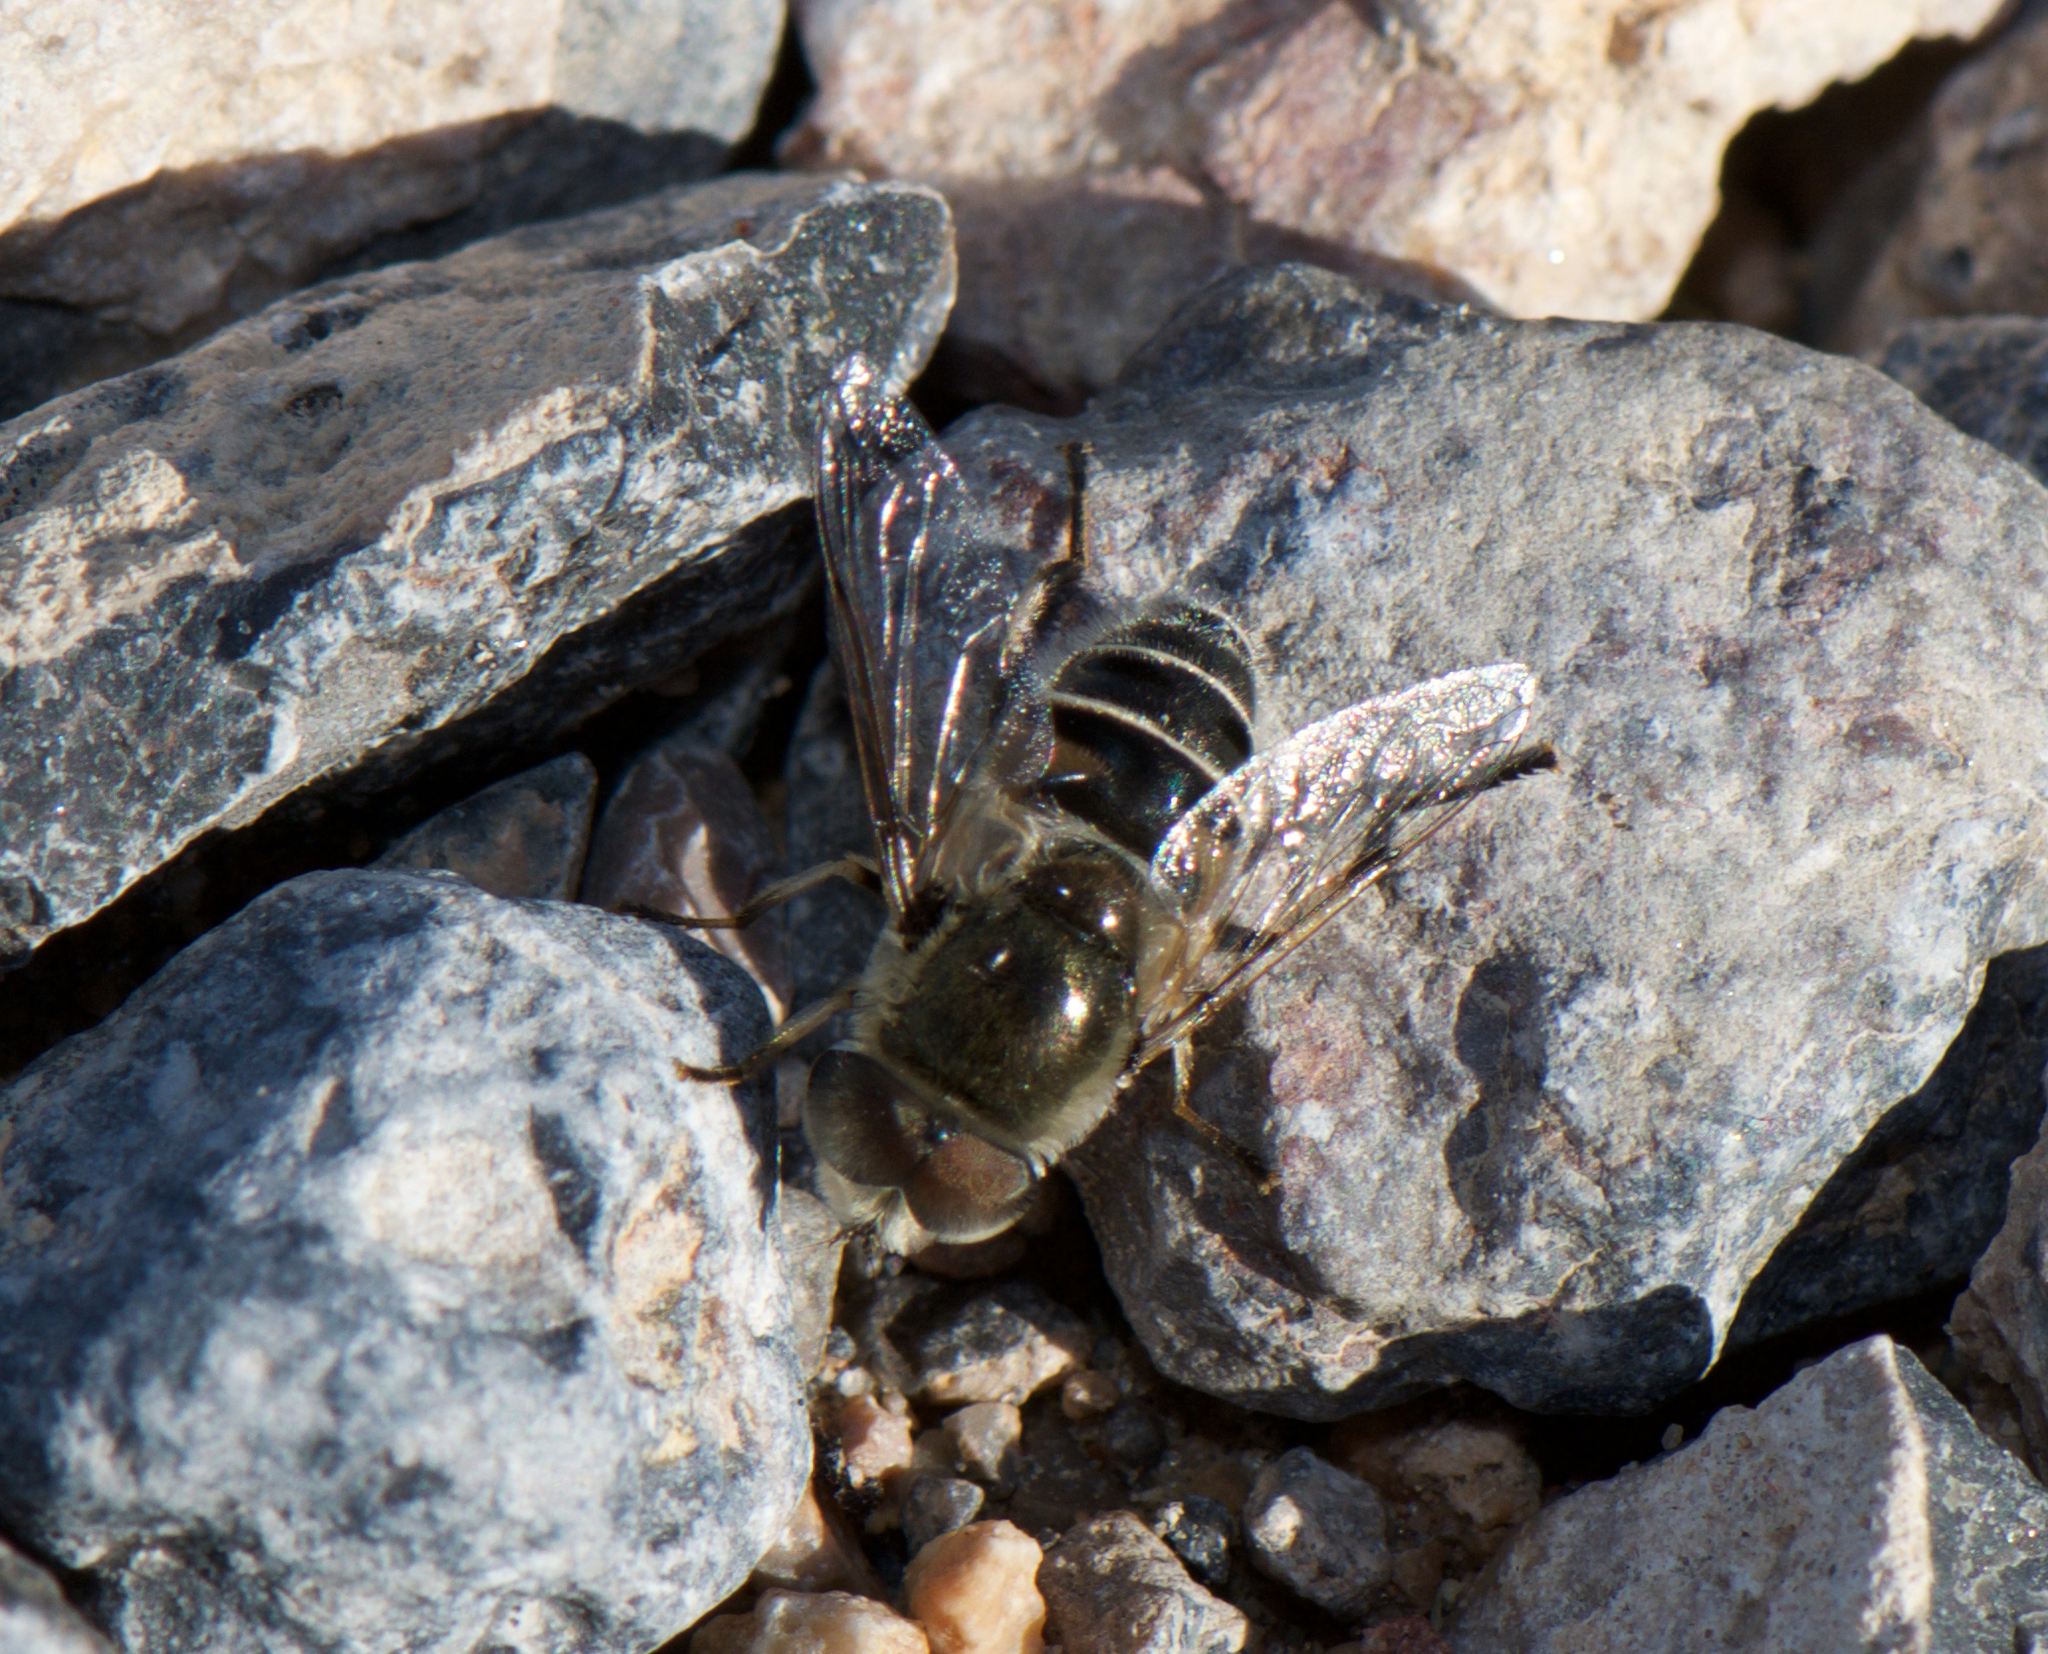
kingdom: Animalia
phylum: Arthropoda
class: Insecta
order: Diptera
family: Syrphidae
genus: Eristalis
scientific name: Eristalis stipator
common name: Yellow-shouldered drone fly
